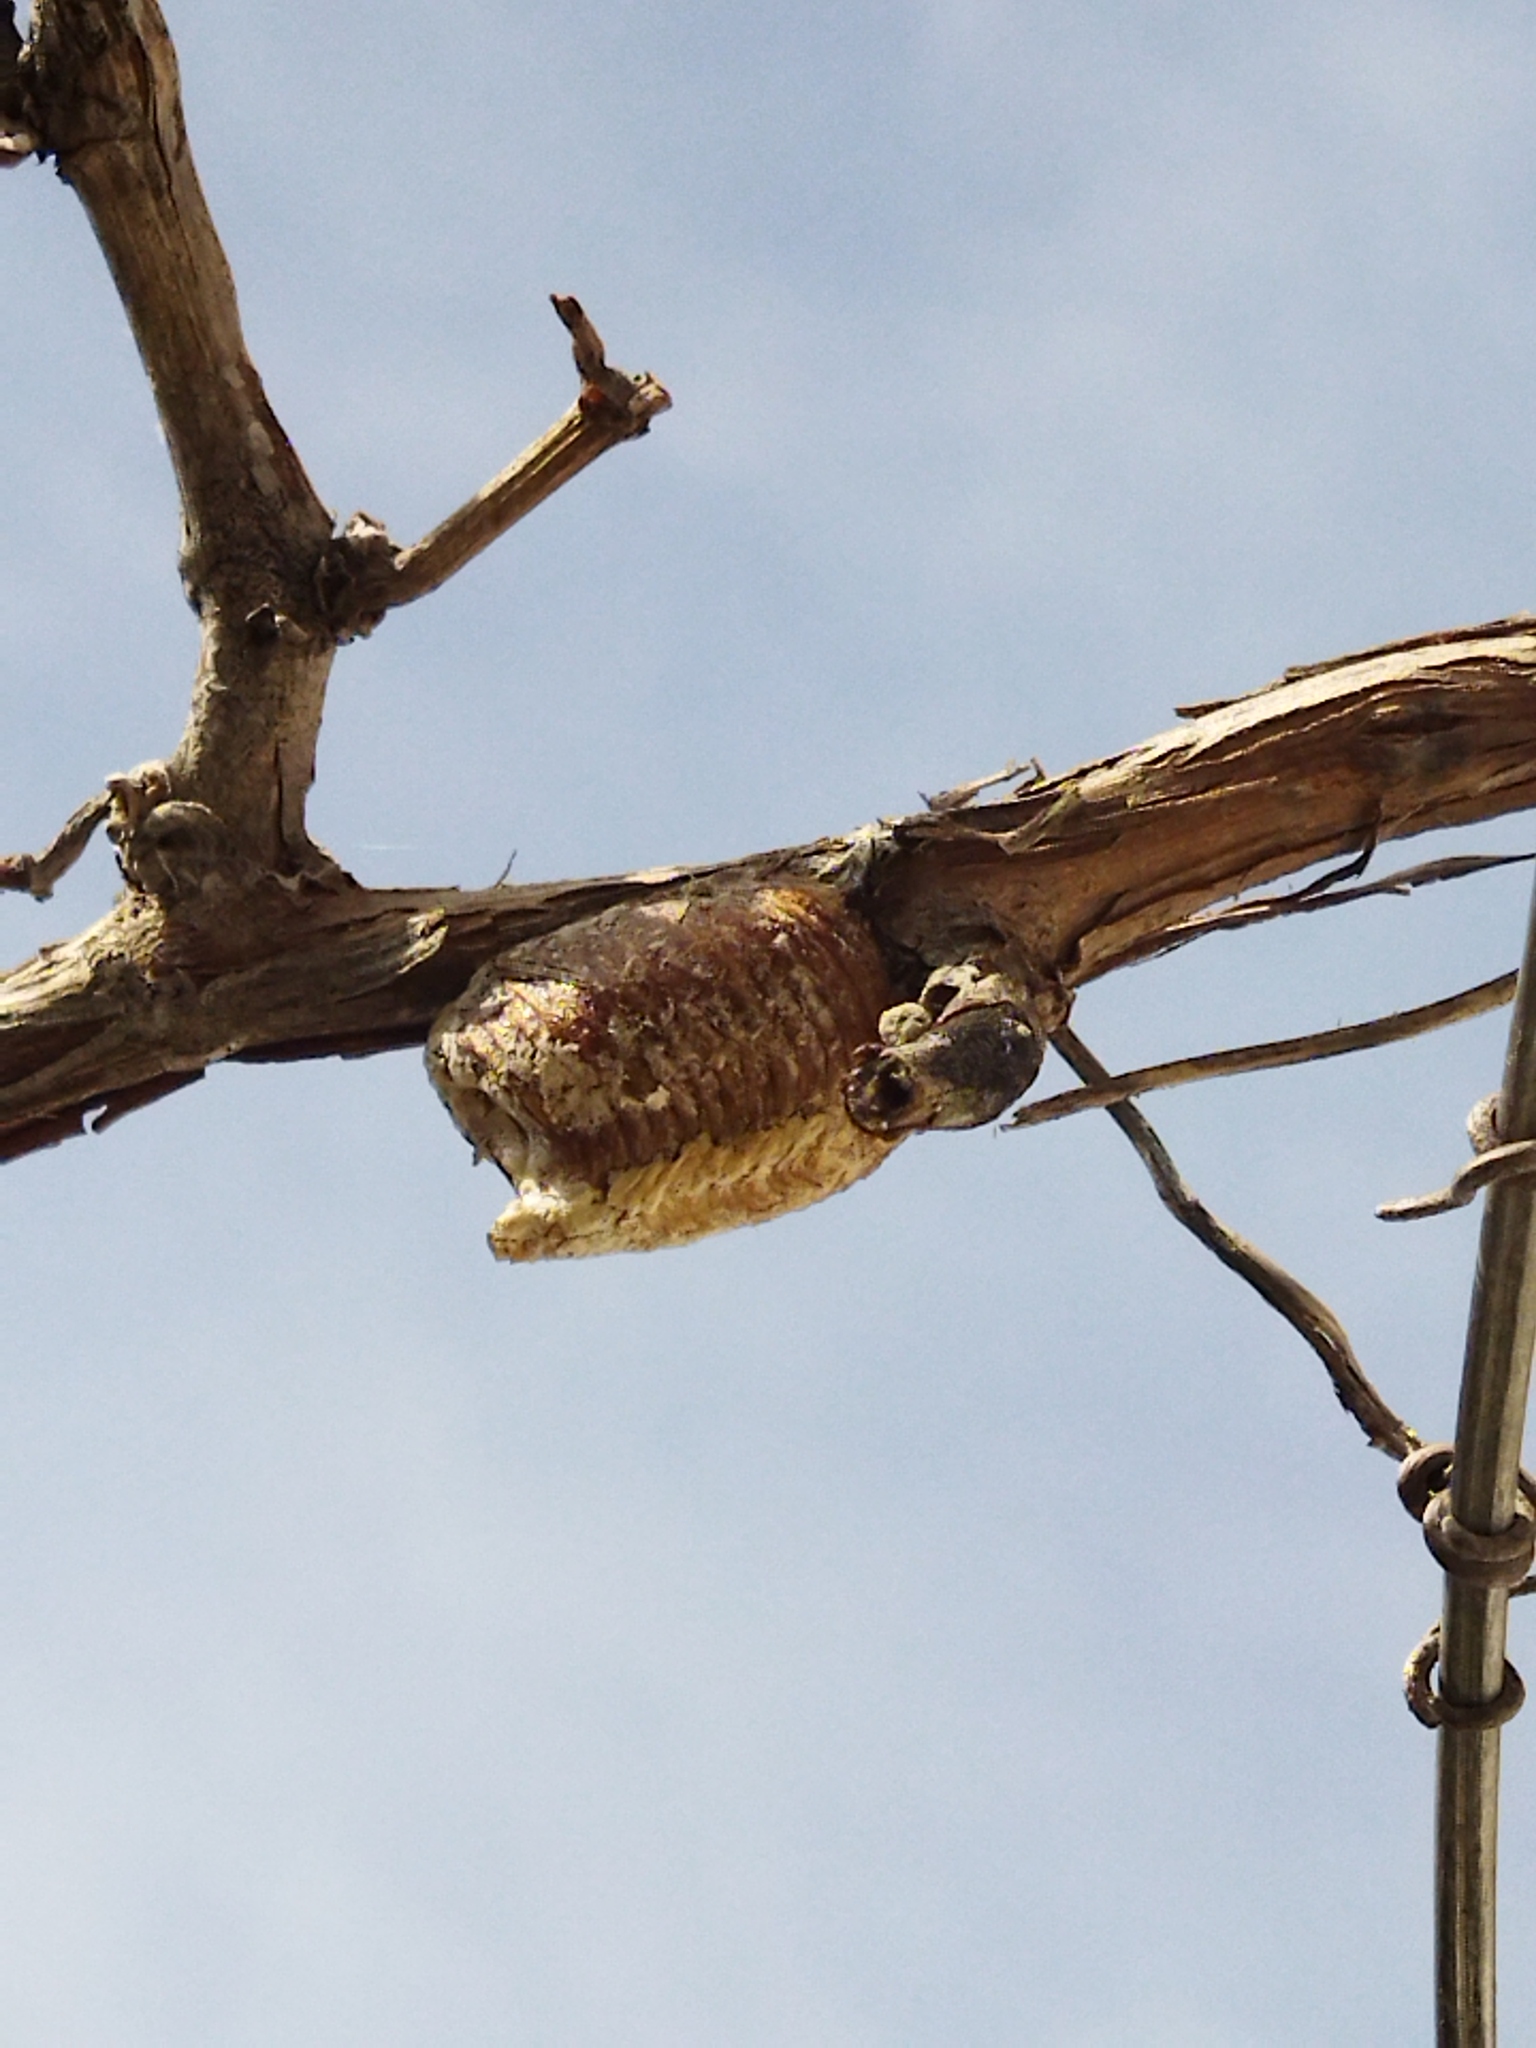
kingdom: Animalia
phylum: Arthropoda
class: Insecta
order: Mantodea
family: Mantidae
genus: Hierodula
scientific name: Hierodula transcaucasica
